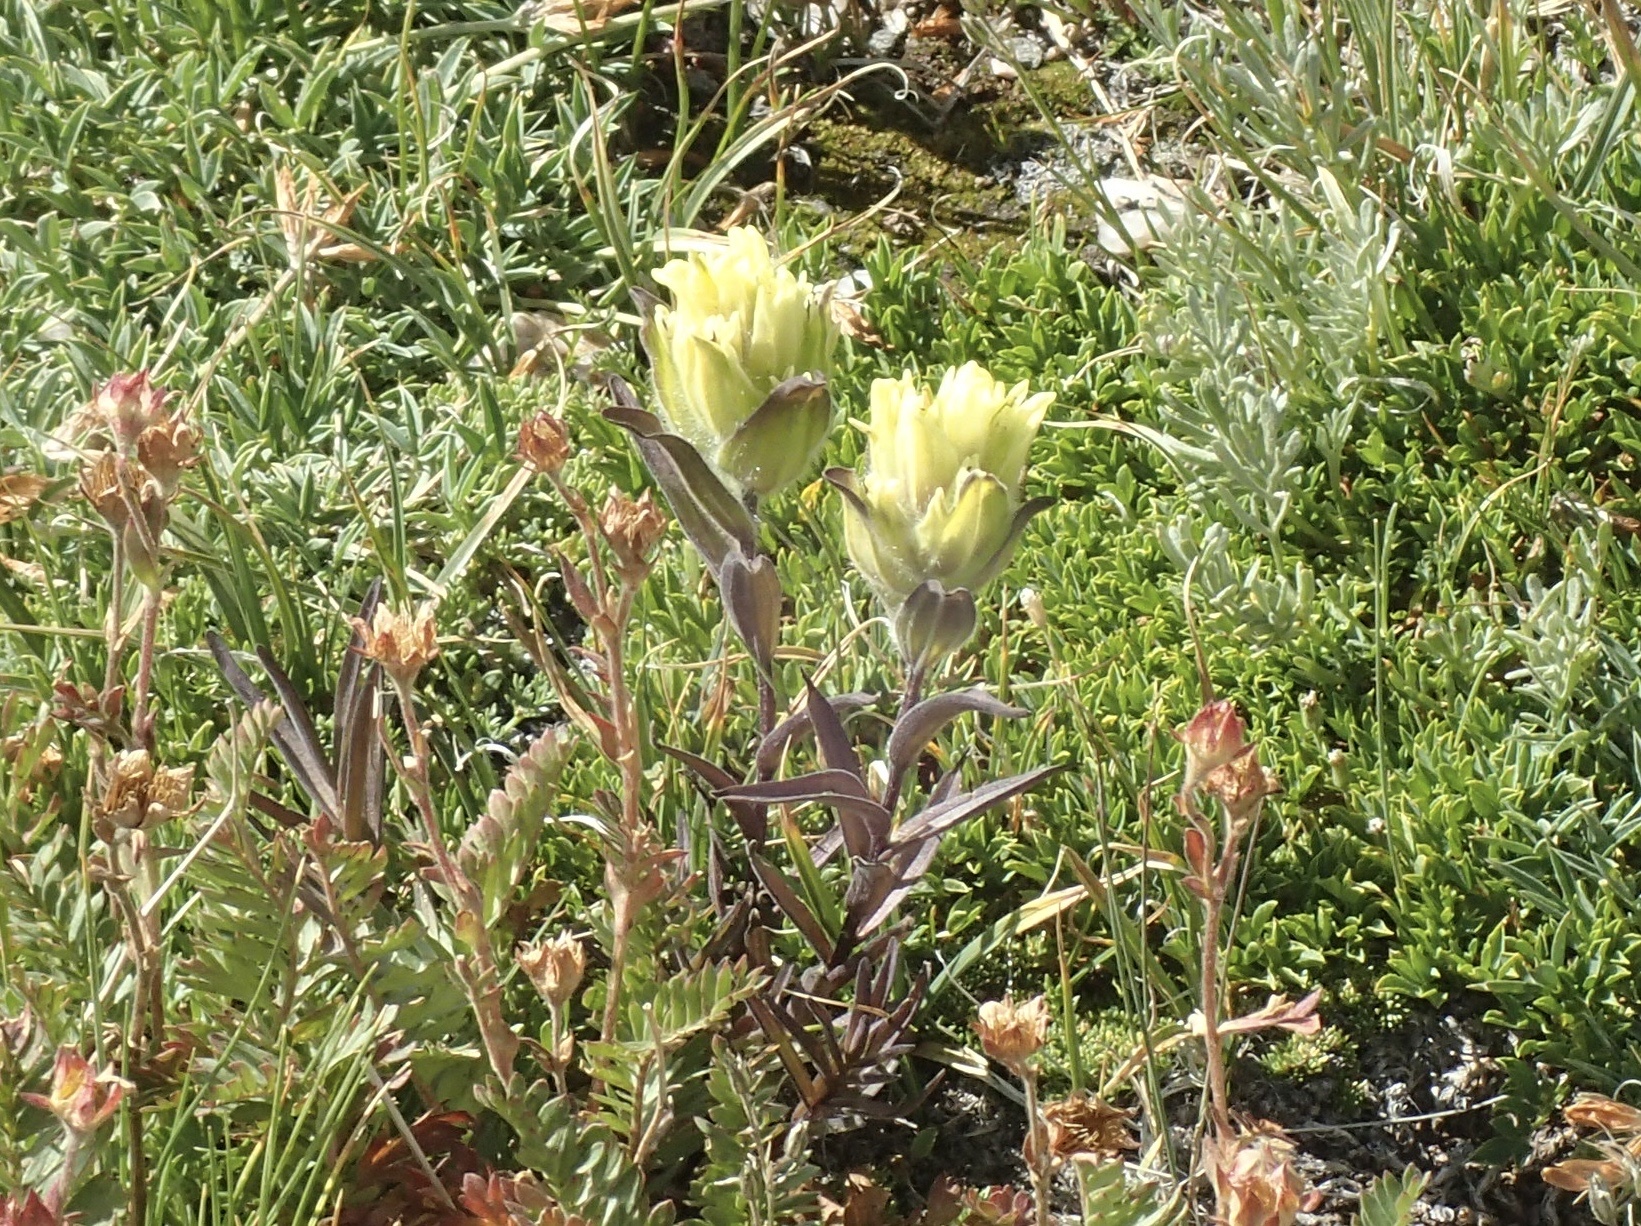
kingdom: Plantae
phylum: Tracheophyta
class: Magnoliopsida
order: Lamiales
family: Orobanchaceae
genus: Castilleja
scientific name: Castilleja occidentalis
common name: Western paintbrush
